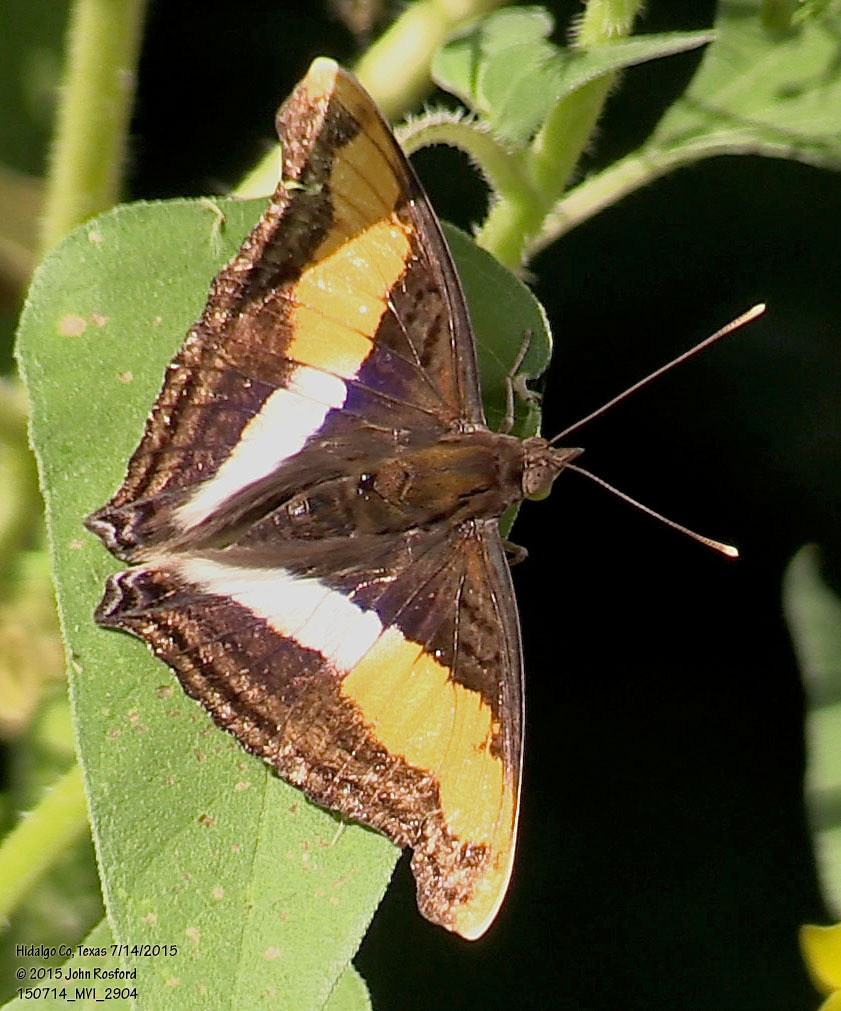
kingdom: Animalia
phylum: Arthropoda
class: Insecta
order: Lepidoptera
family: Nymphalidae
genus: Doxocopa
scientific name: Doxocopa laure
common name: Silver emperor
